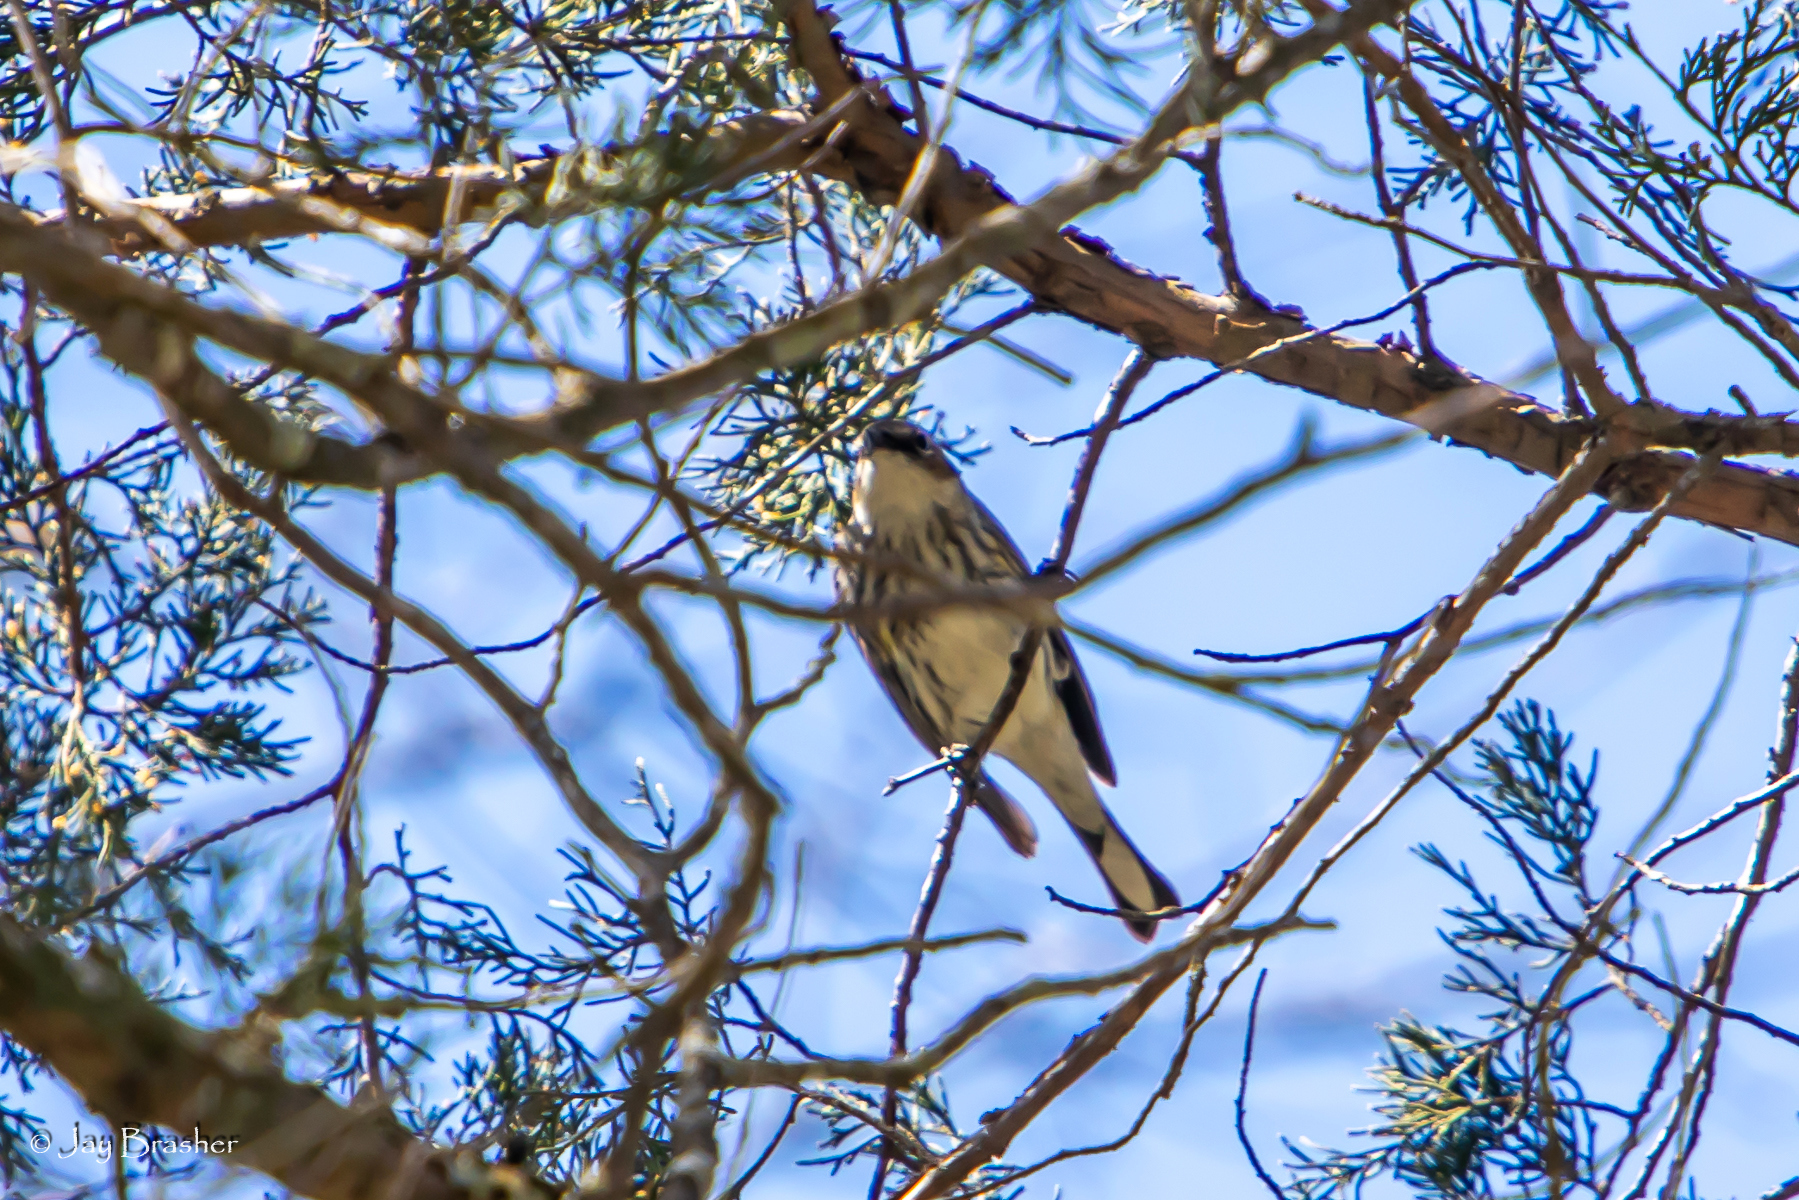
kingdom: Animalia
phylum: Chordata
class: Aves
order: Passeriformes
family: Parulidae
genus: Setophaga
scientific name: Setophaga coronata
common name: Myrtle warbler
